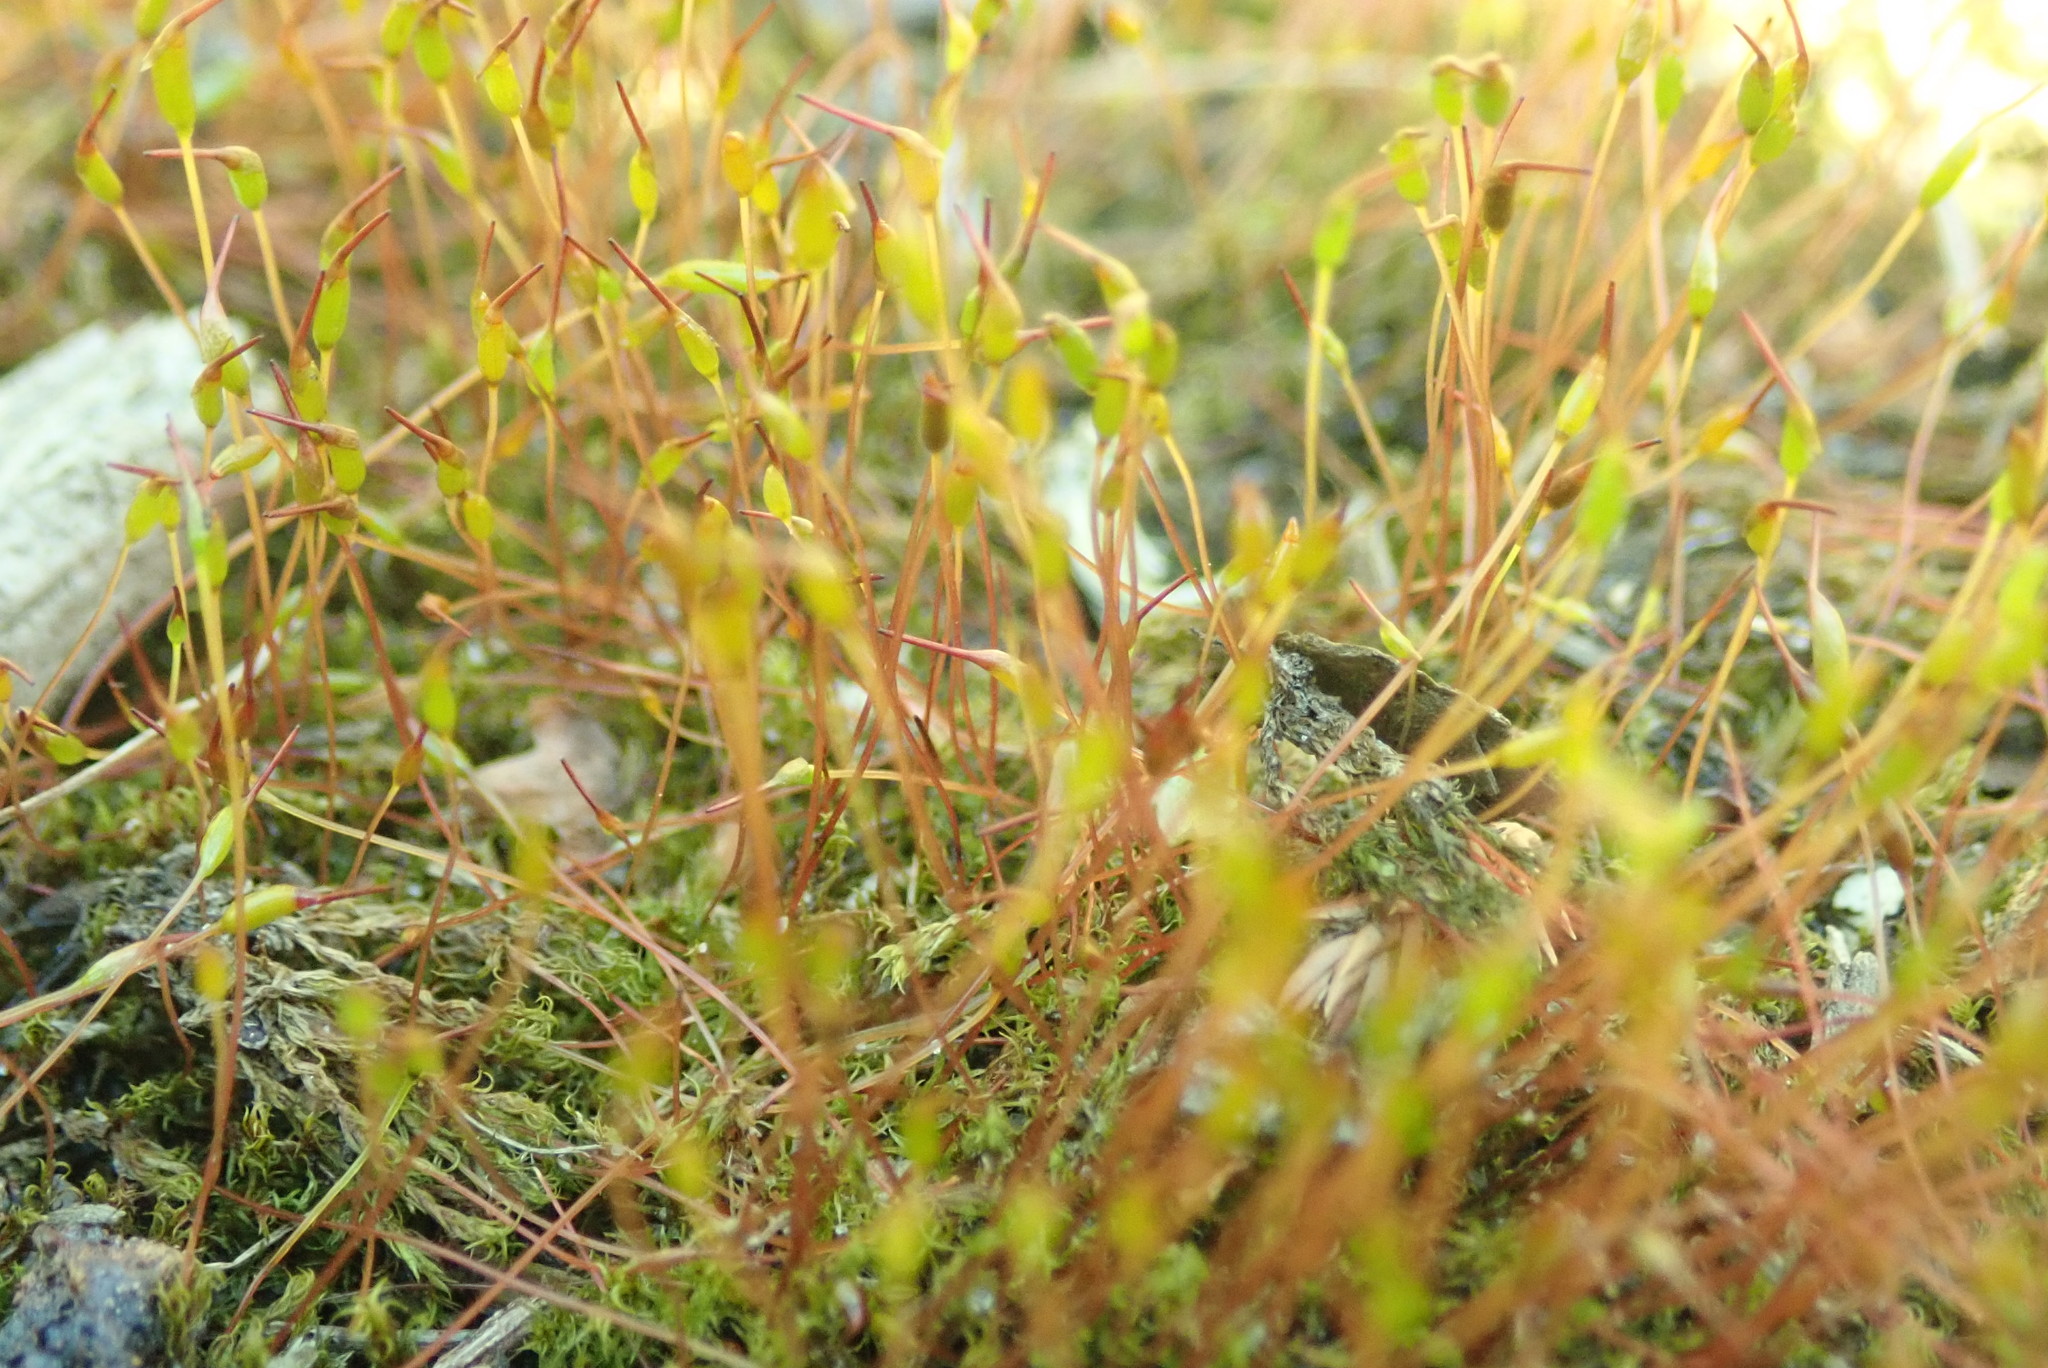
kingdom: Plantae
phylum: Bryophyta
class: Bryopsida
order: Dicranales
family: Ditrichaceae
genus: Ceratodon
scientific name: Ceratodon purpureus
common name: Redshank
